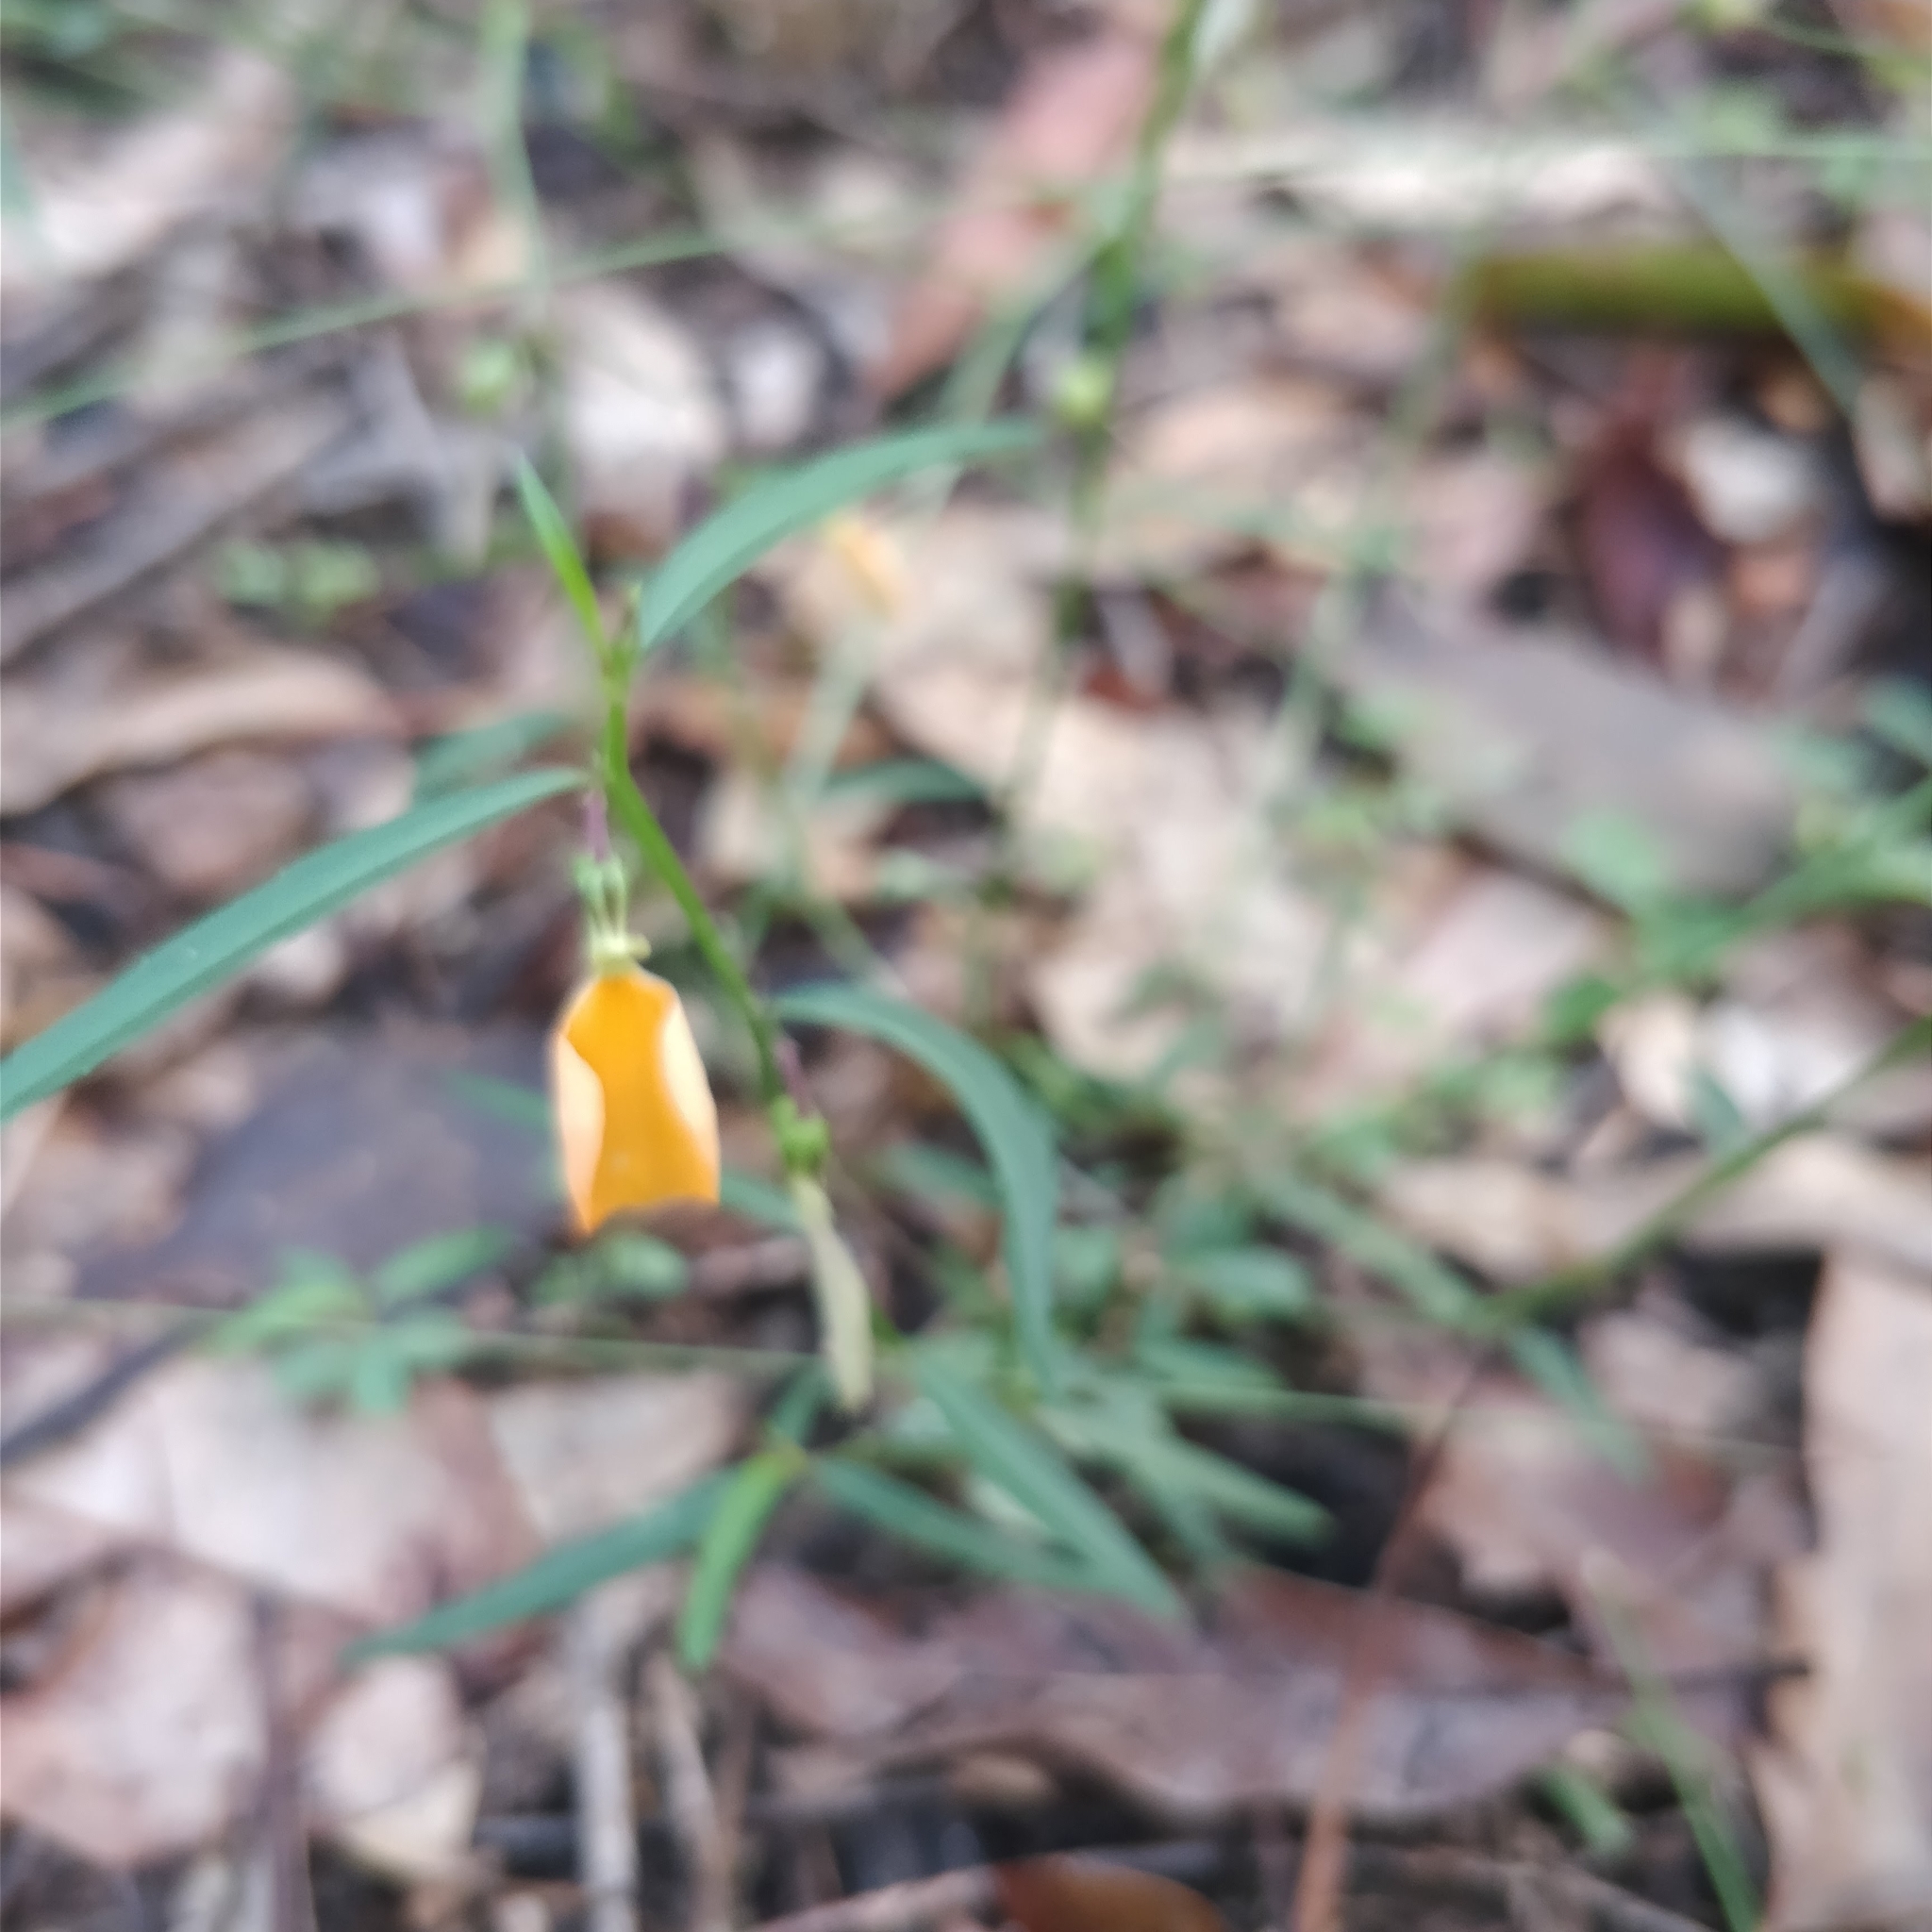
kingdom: Plantae
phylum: Tracheophyta
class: Magnoliopsida
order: Malpighiales
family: Violaceae
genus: Pigea
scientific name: Pigea stellarioides
